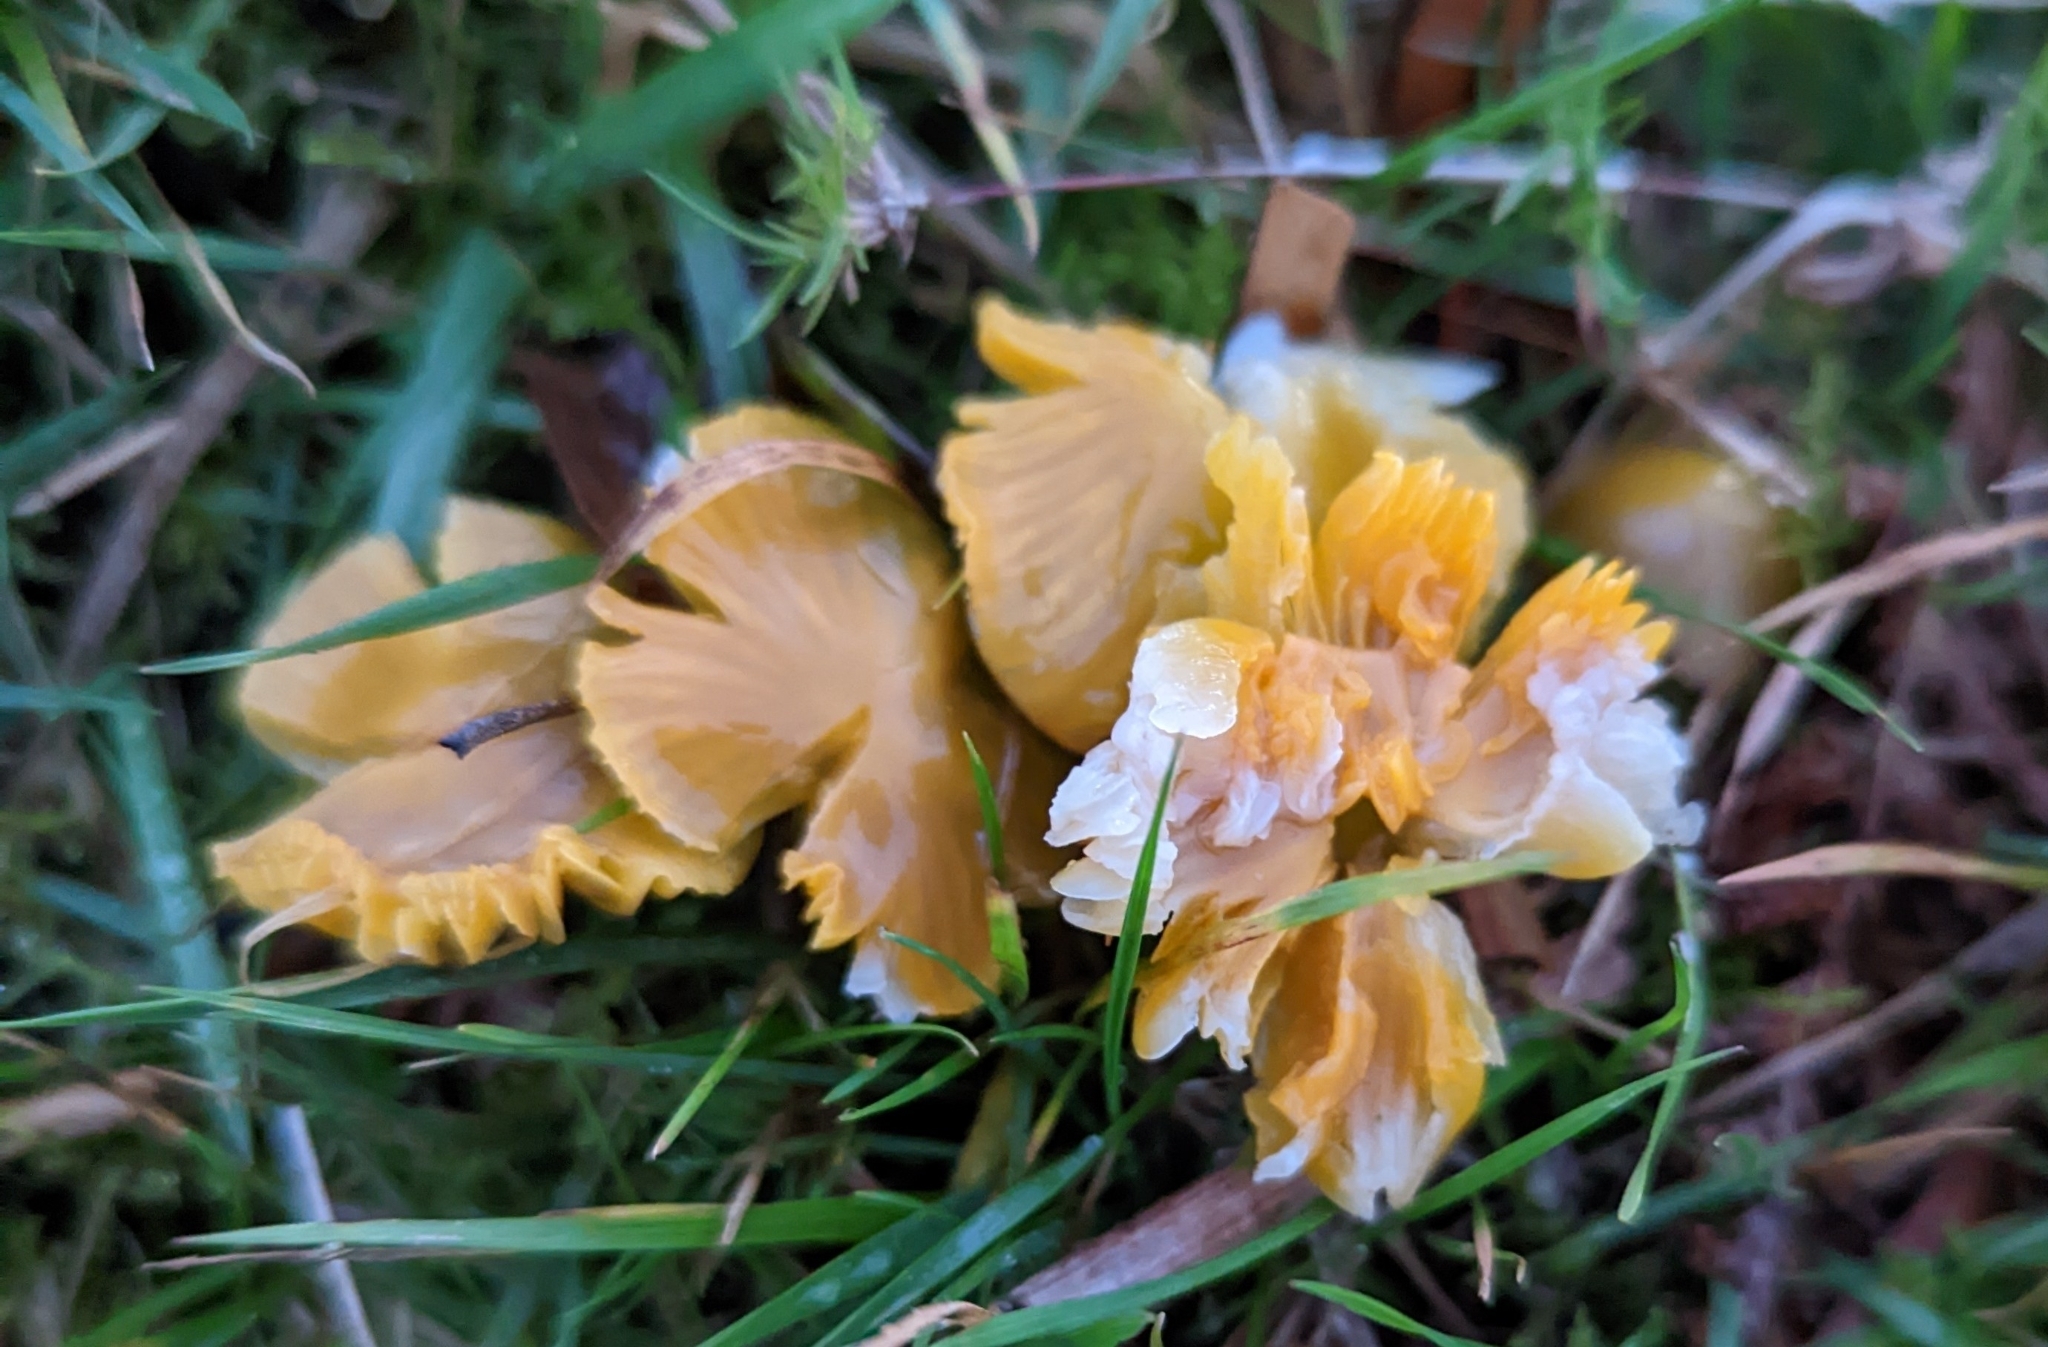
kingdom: Fungi
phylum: Basidiomycota
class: Agaricomycetes
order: Agaricales
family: Hygrophoraceae
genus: Gliophorus
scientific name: Gliophorus psittacinus
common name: Parrot wax-cap
